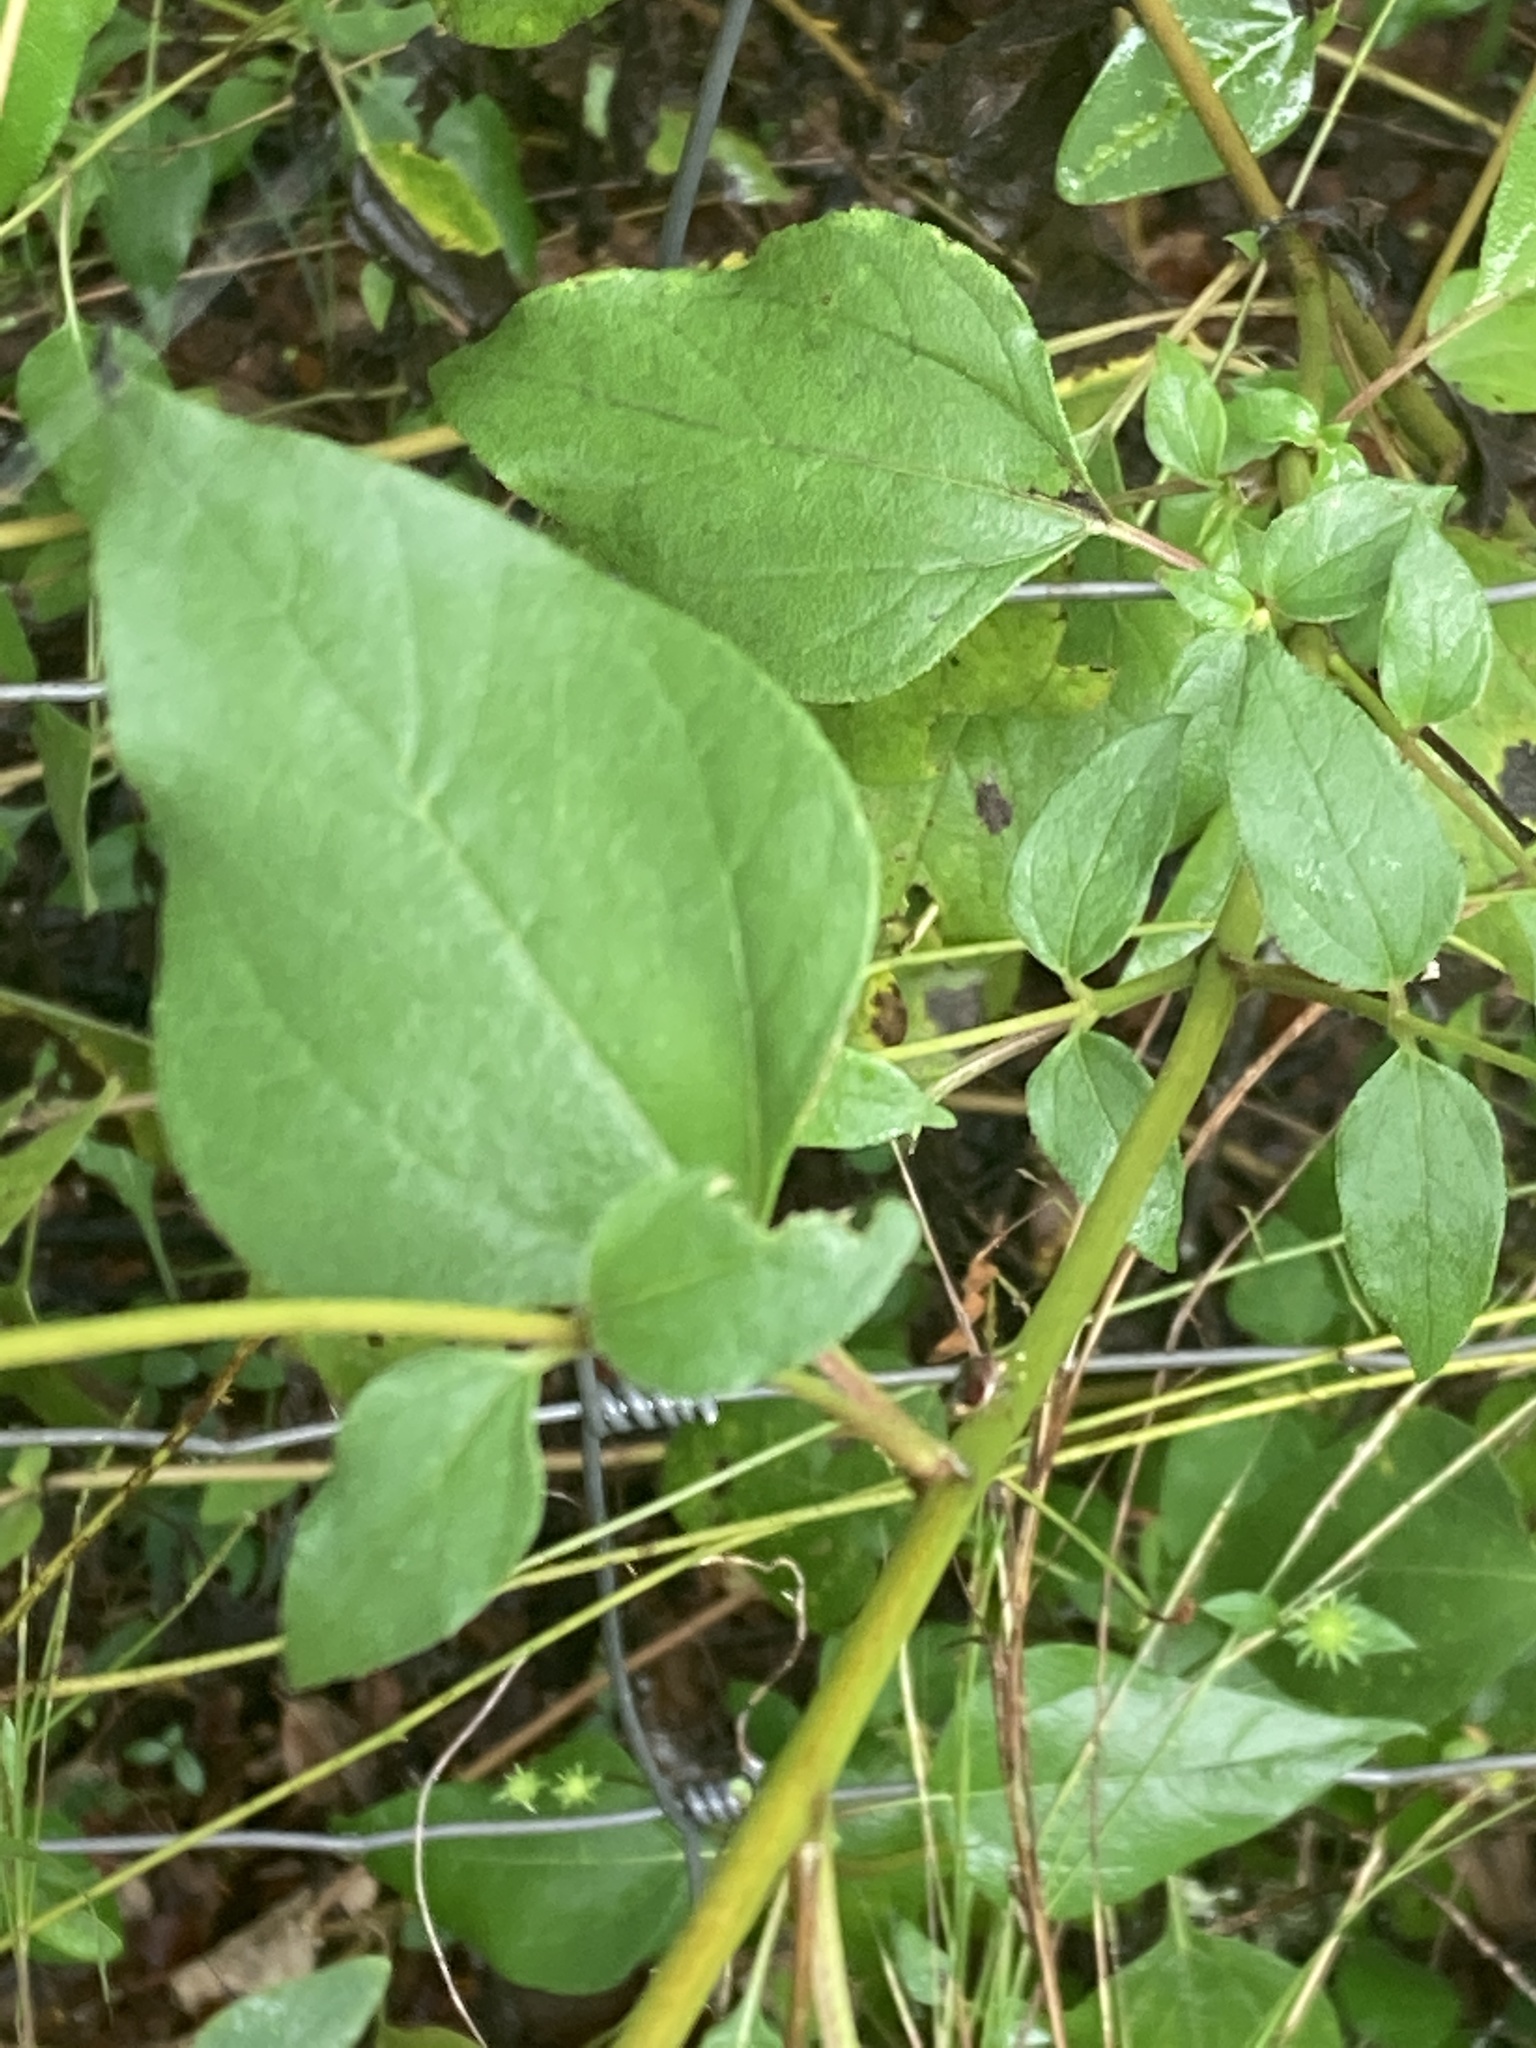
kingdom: Plantae
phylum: Tracheophyta
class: Magnoliopsida
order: Asterales
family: Asteraceae
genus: Viguiera
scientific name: Viguiera dentata
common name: Toothleaf
